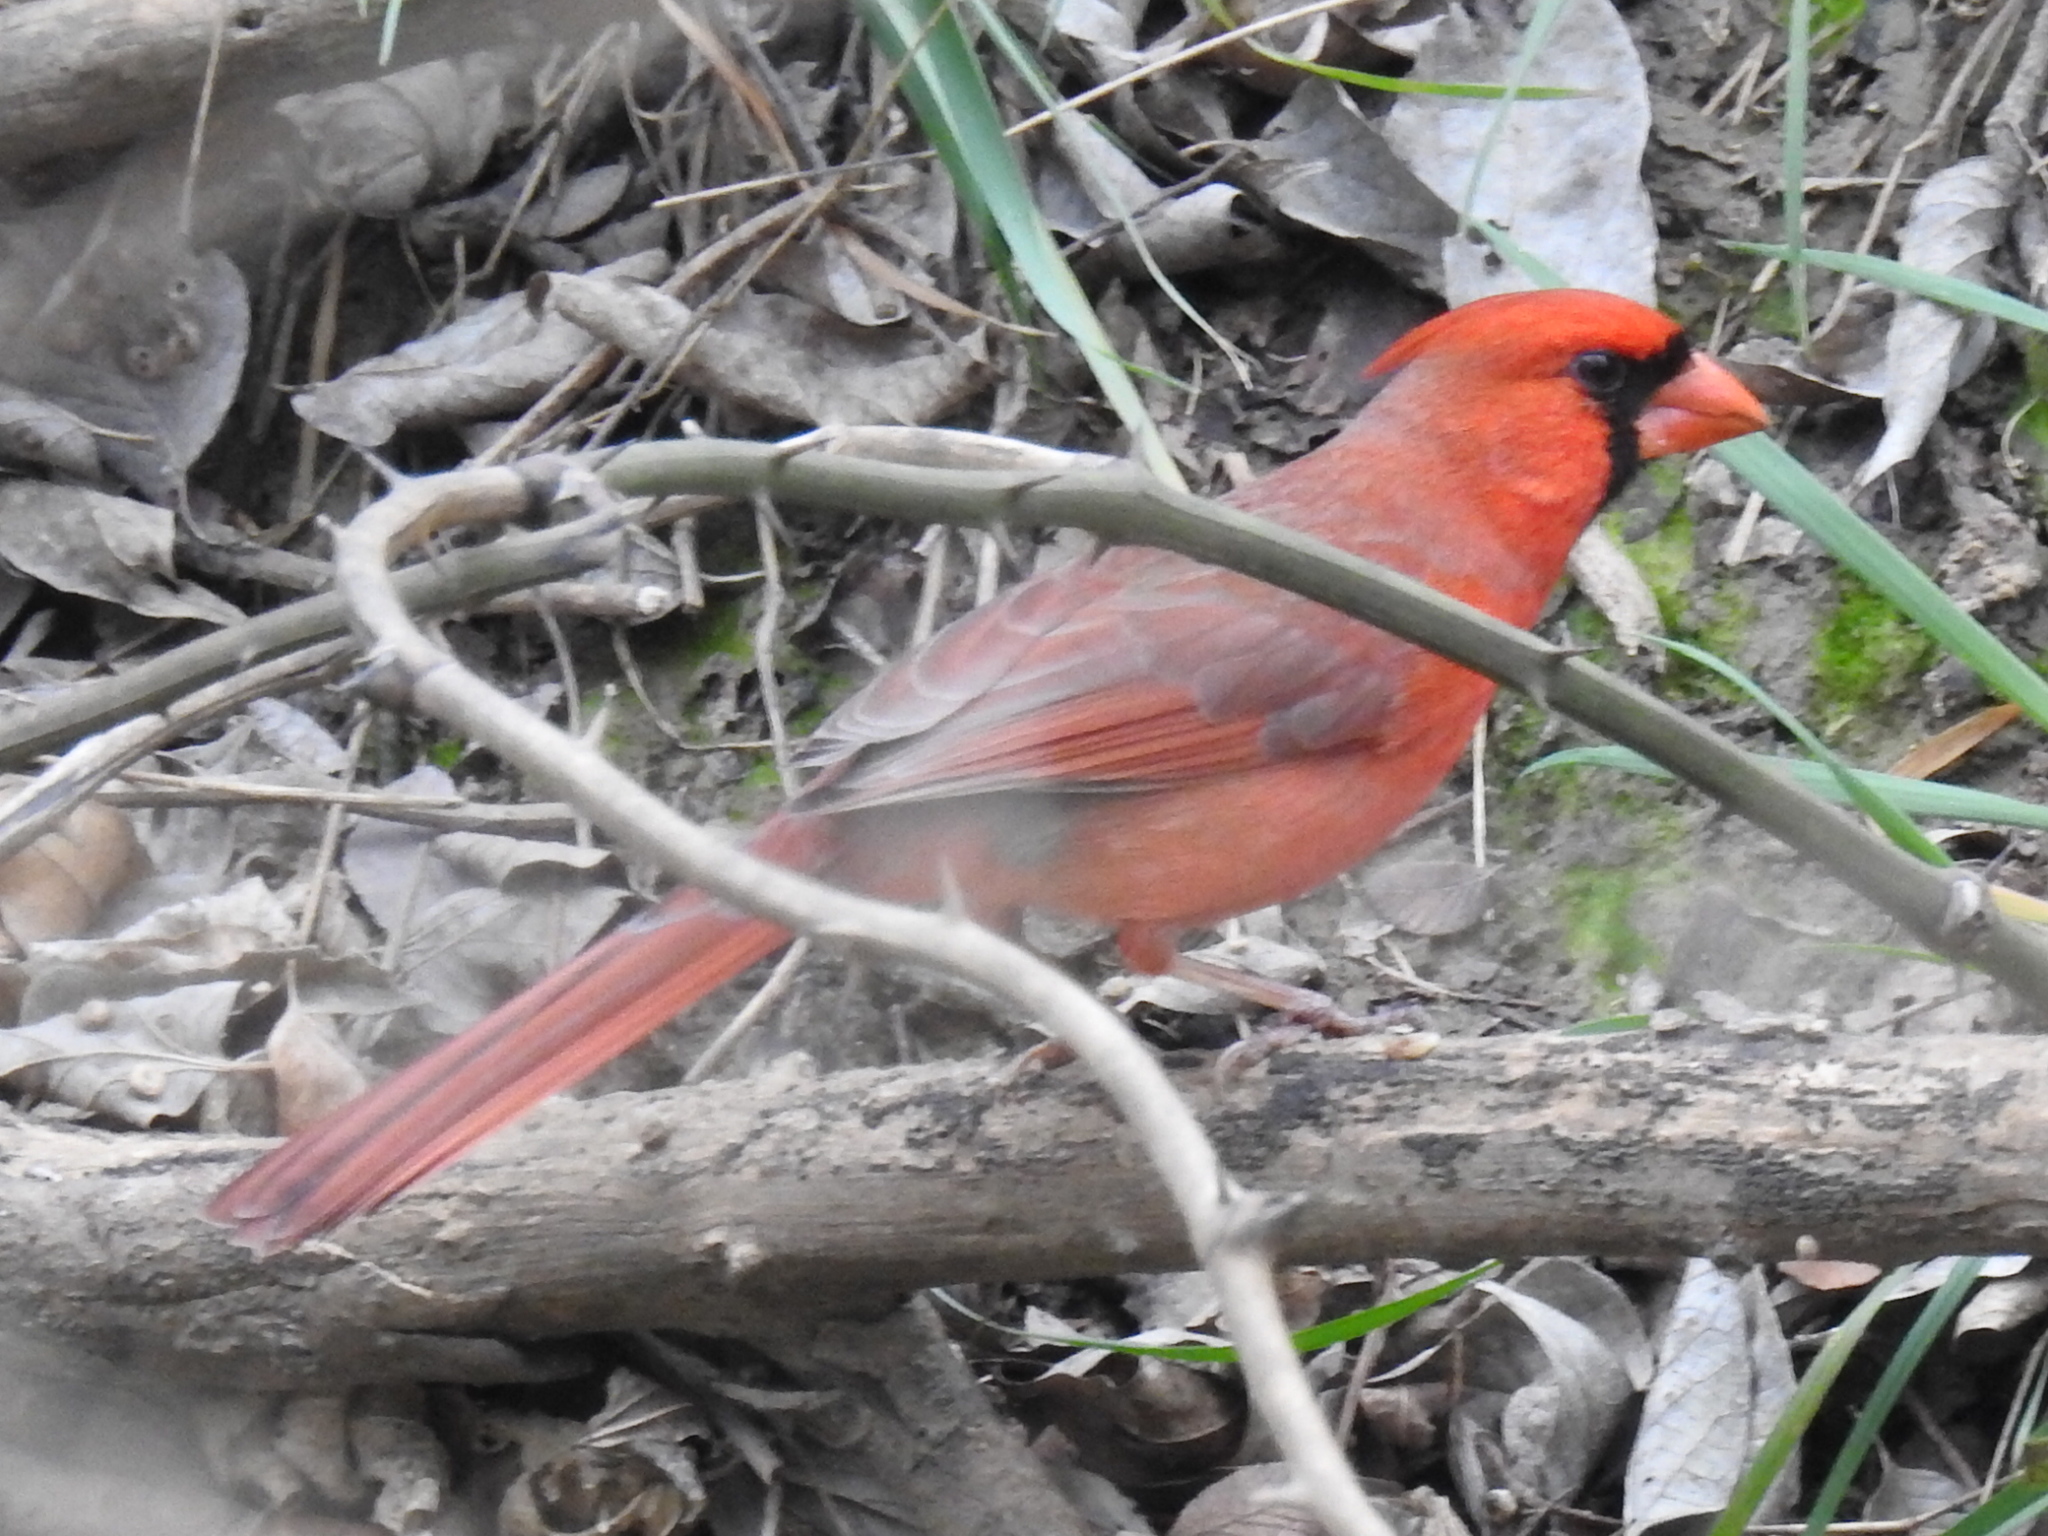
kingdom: Animalia
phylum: Chordata
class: Aves
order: Passeriformes
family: Cardinalidae
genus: Cardinalis
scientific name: Cardinalis cardinalis
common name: Northern cardinal
